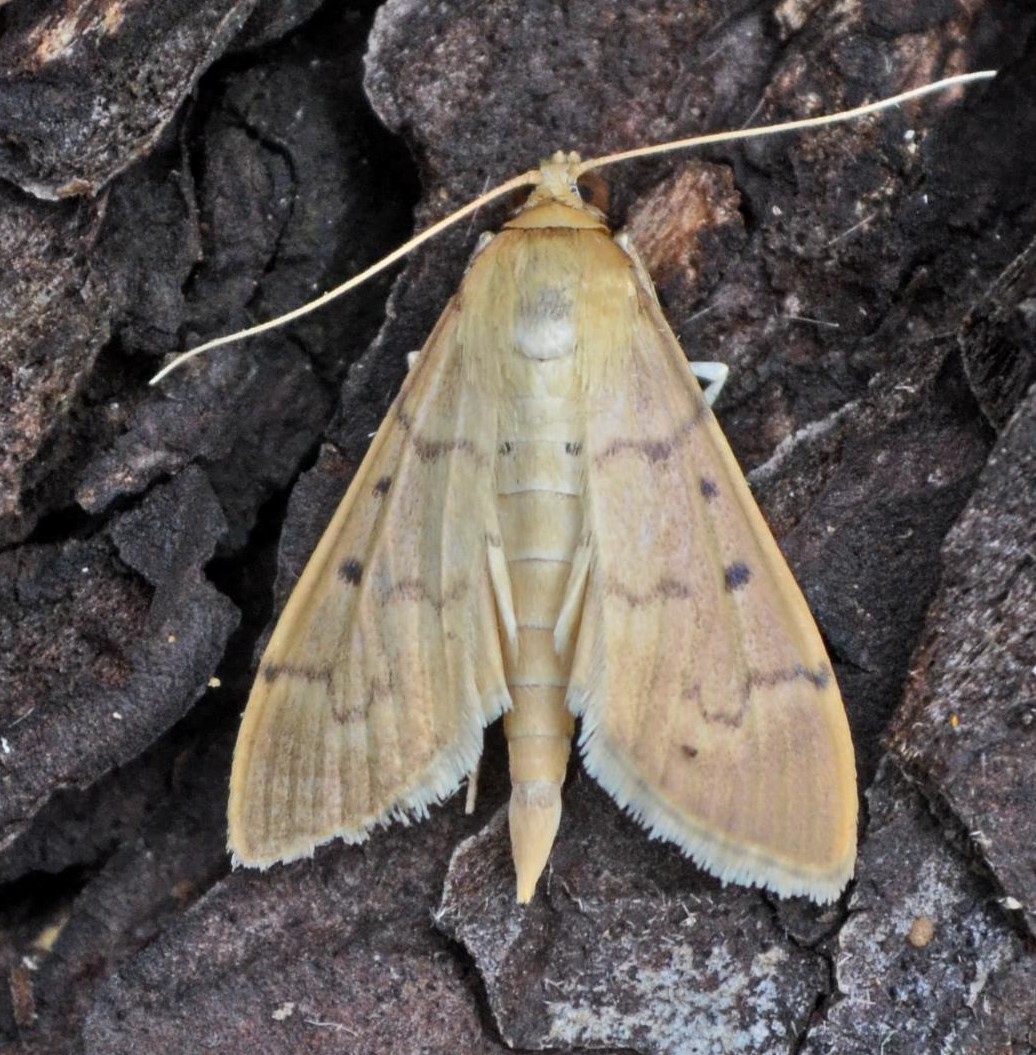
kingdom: Animalia
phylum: Arthropoda
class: Insecta
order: Lepidoptera
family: Crambidae
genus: Herpetogramma
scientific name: Herpetogramma bipunctalis
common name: Southern beet webworm
